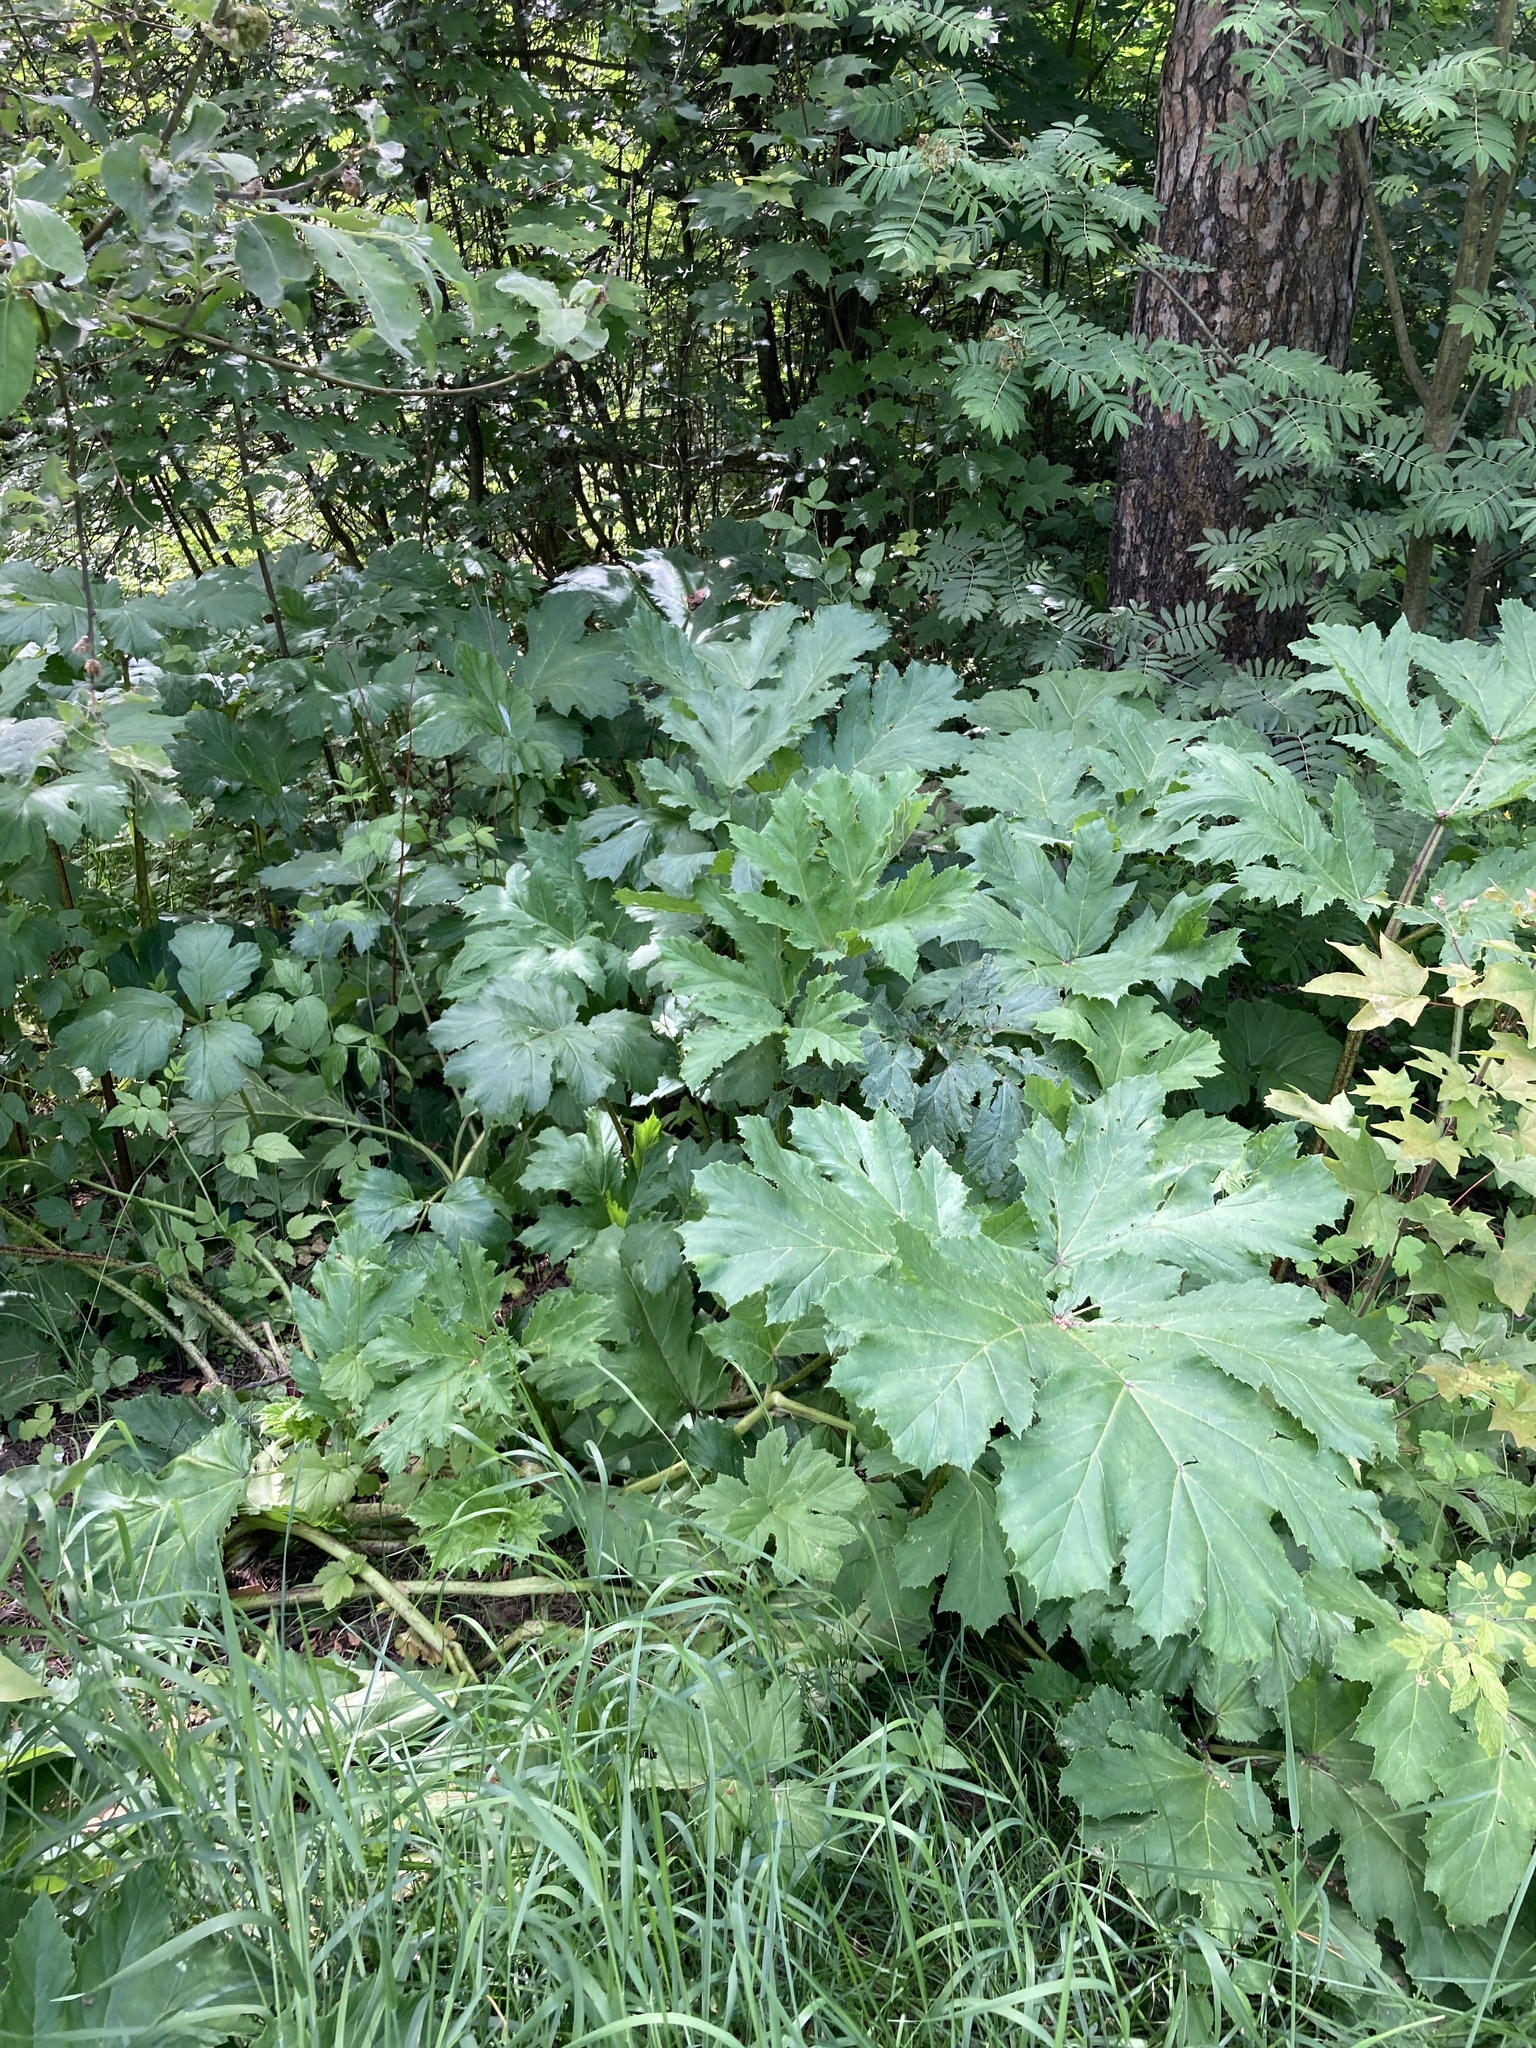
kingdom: Plantae
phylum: Tracheophyta
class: Magnoliopsida
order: Apiales
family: Apiaceae
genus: Heracleum
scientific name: Heracleum sosnowskyi
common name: Sosnowsky's hogweed
